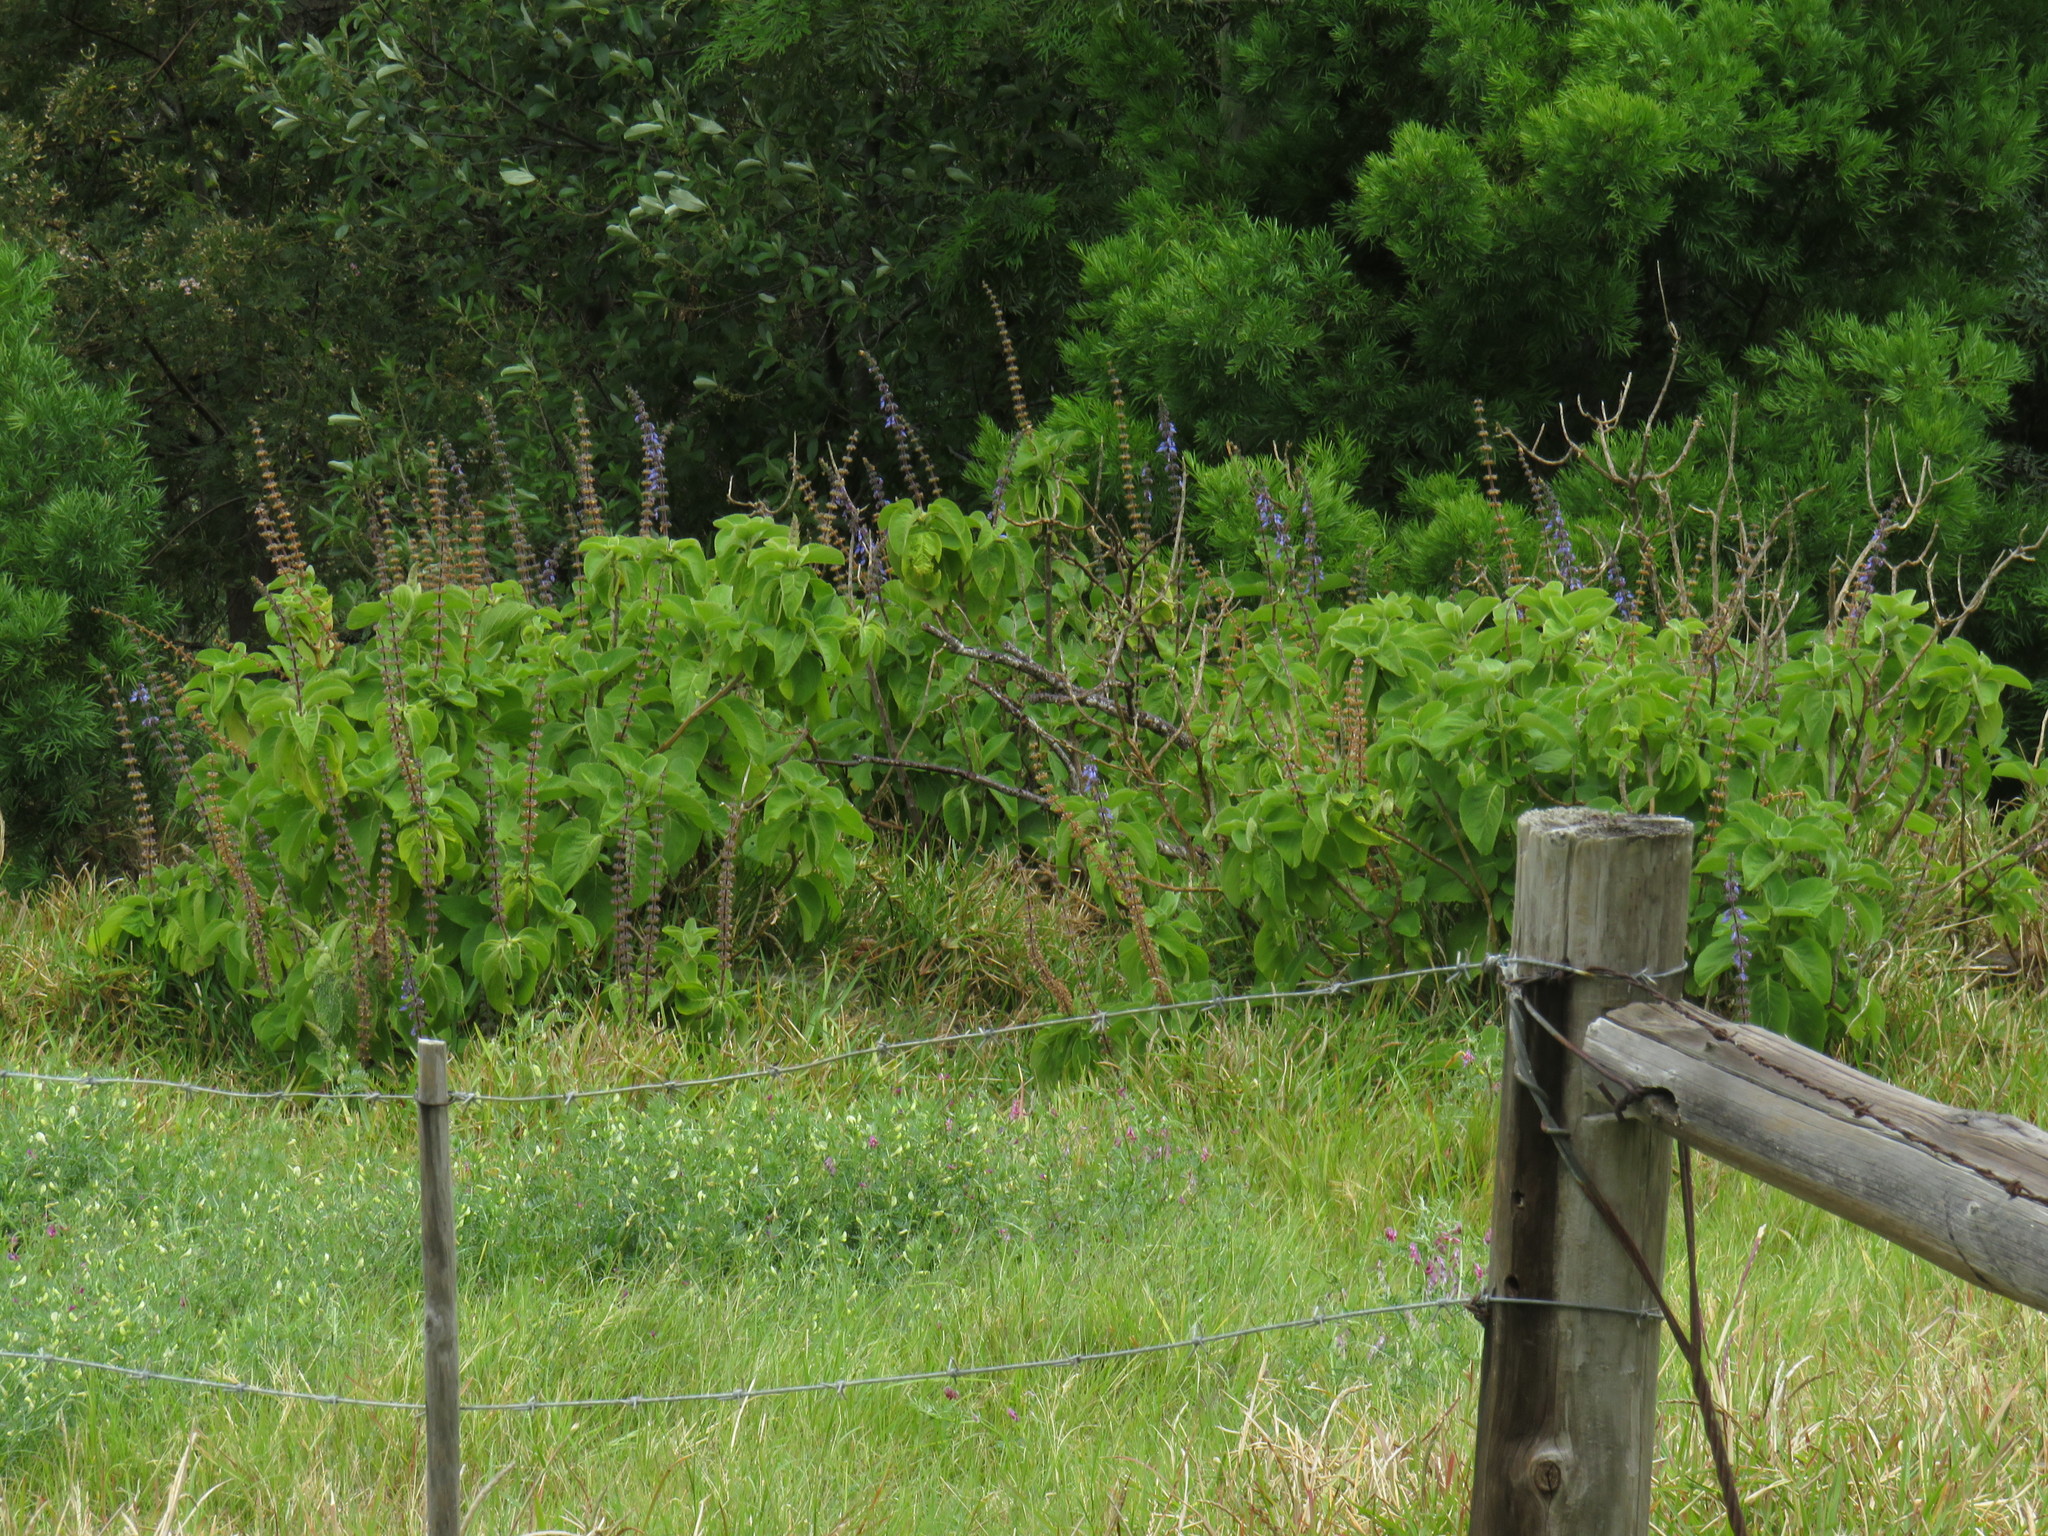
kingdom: Plantae
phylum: Tracheophyta
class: Magnoliopsida
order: Lamiales
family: Lamiaceae
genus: Coleus
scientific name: Coleus barbatus
